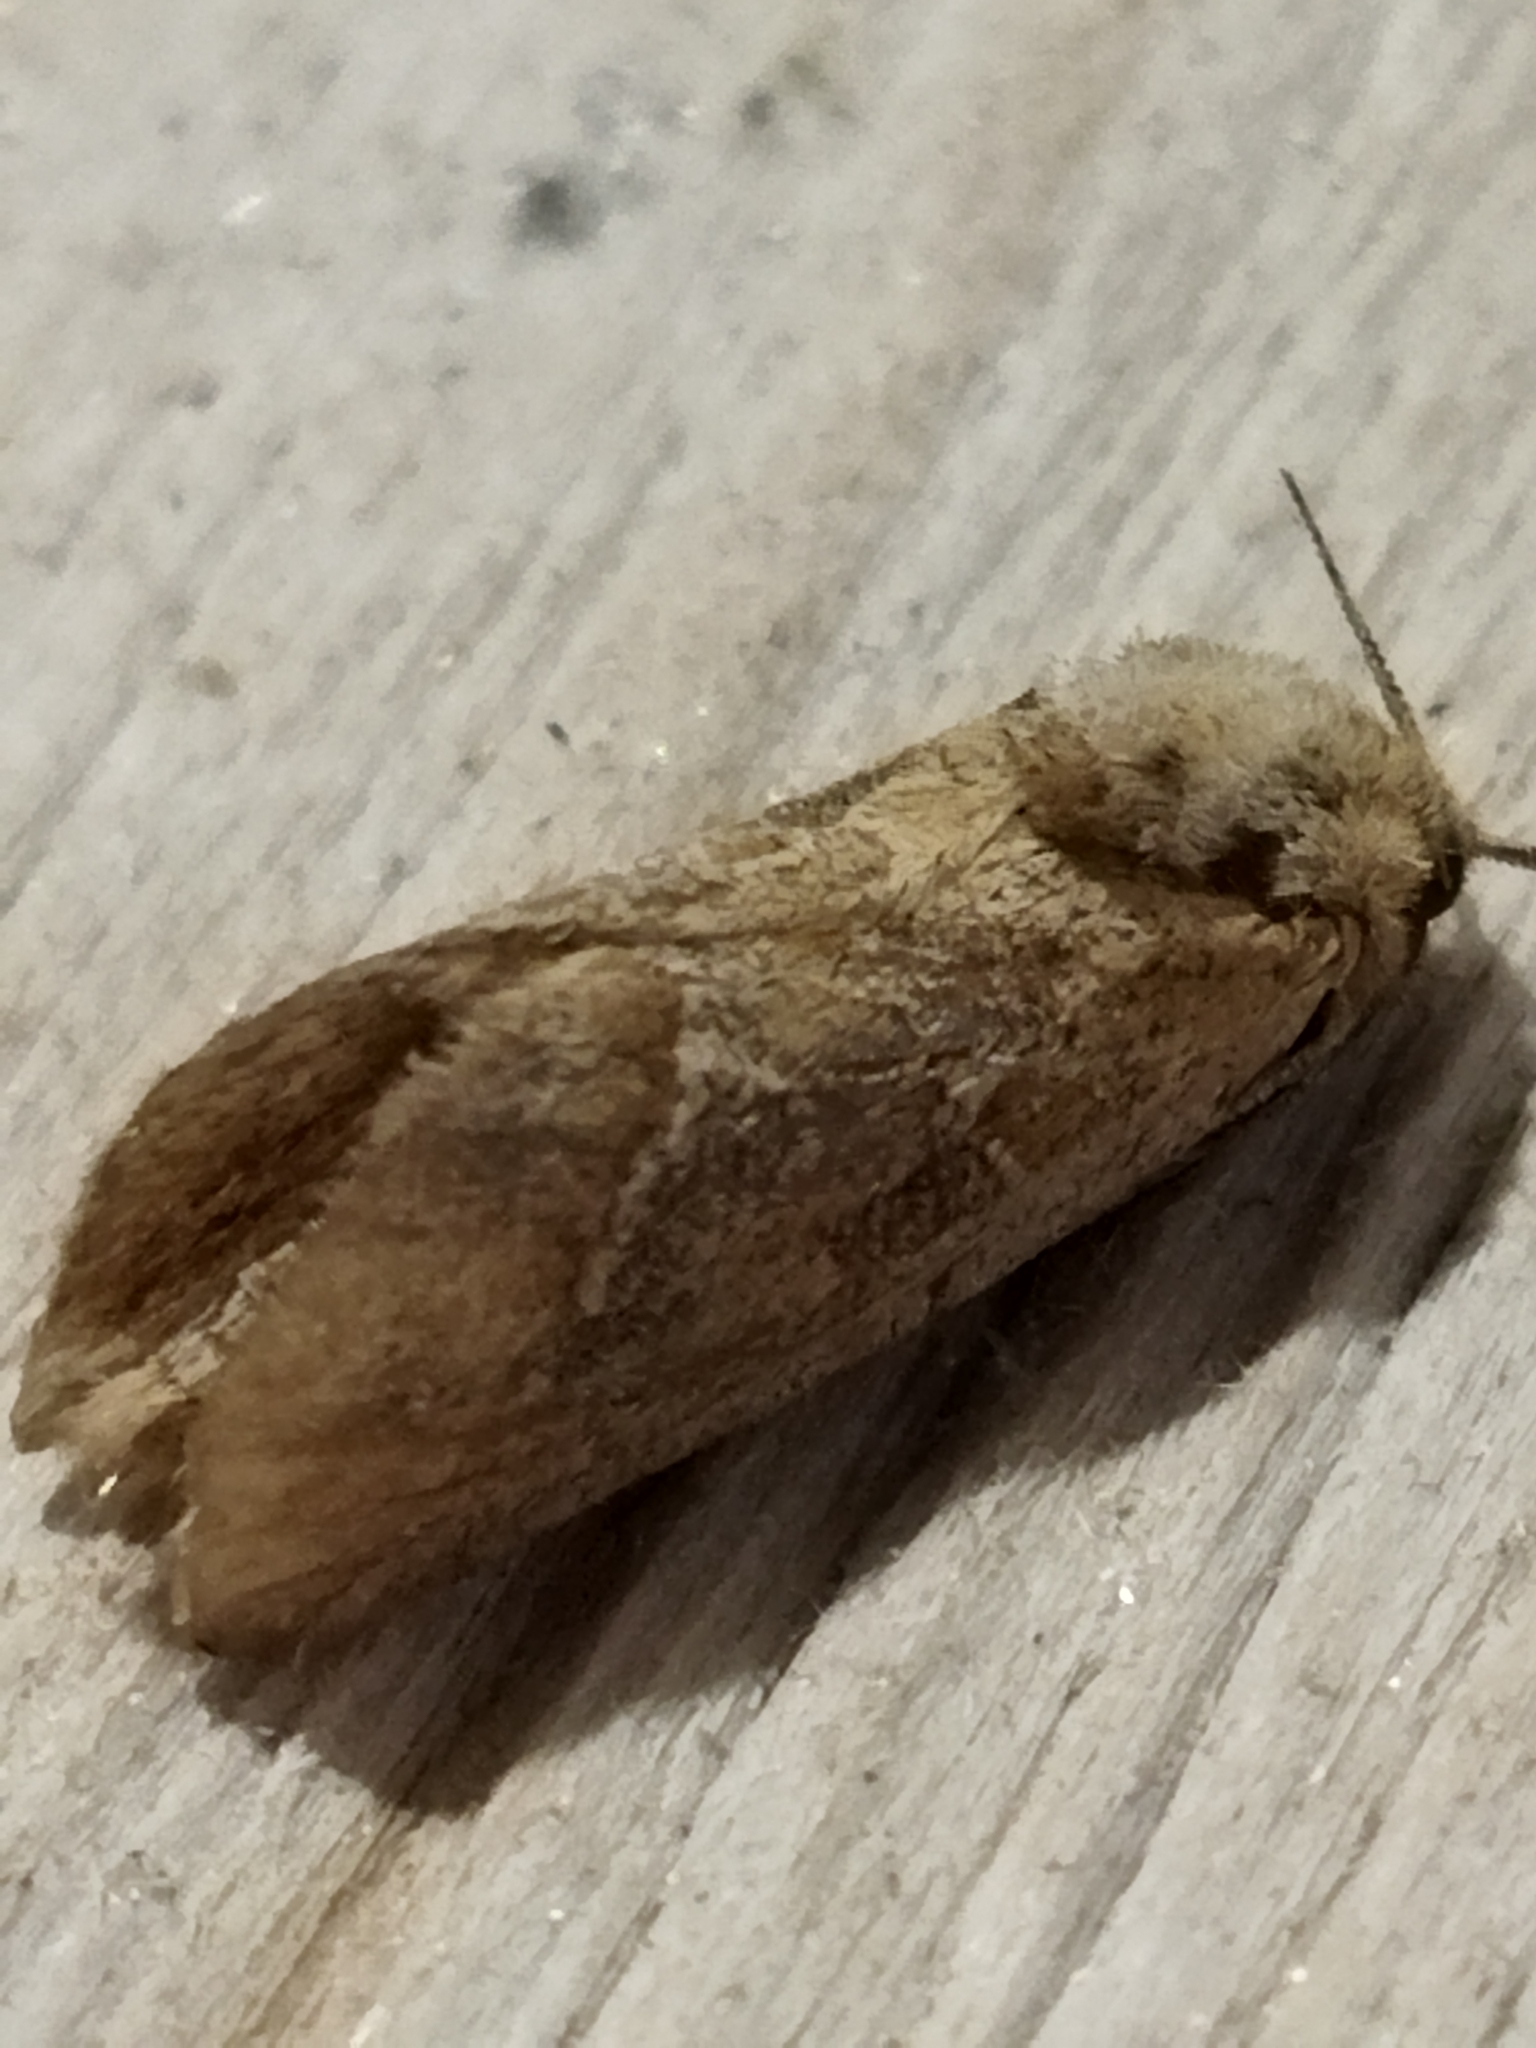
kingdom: Animalia
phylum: Arthropoda
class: Insecta
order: Lepidoptera
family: Hepialidae
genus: Triodia
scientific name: Triodia amasinus
